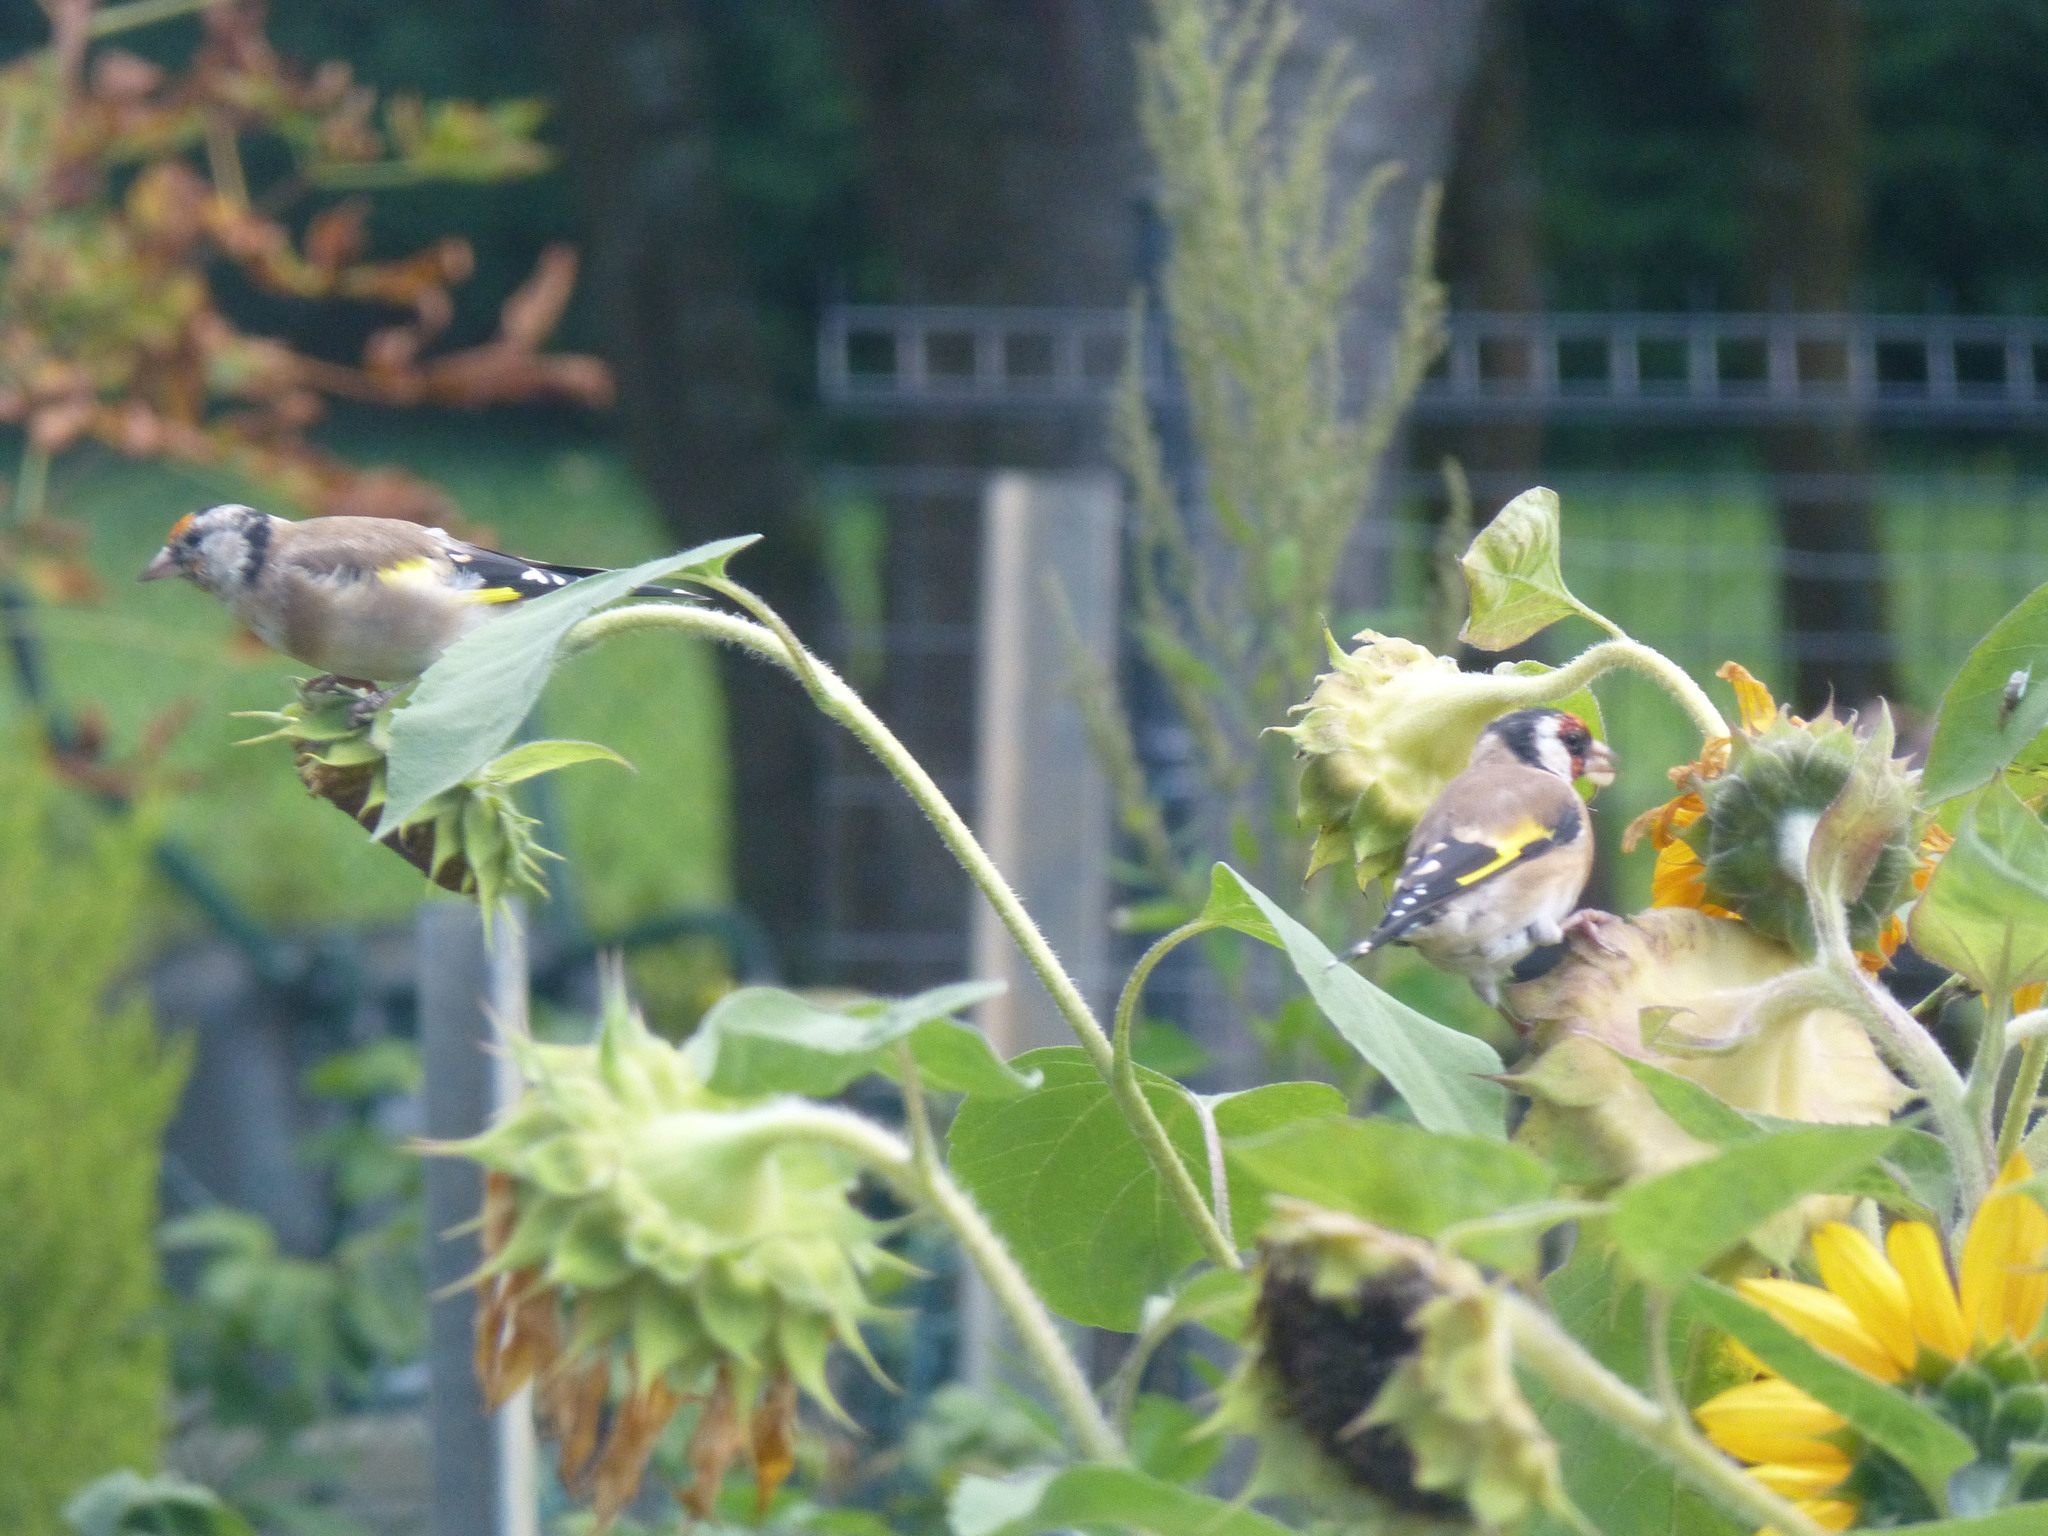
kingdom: Animalia
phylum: Chordata
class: Aves
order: Passeriformes
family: Fringillidae
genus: Carduelis
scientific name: Carduelis carduelis
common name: European goldfinch
